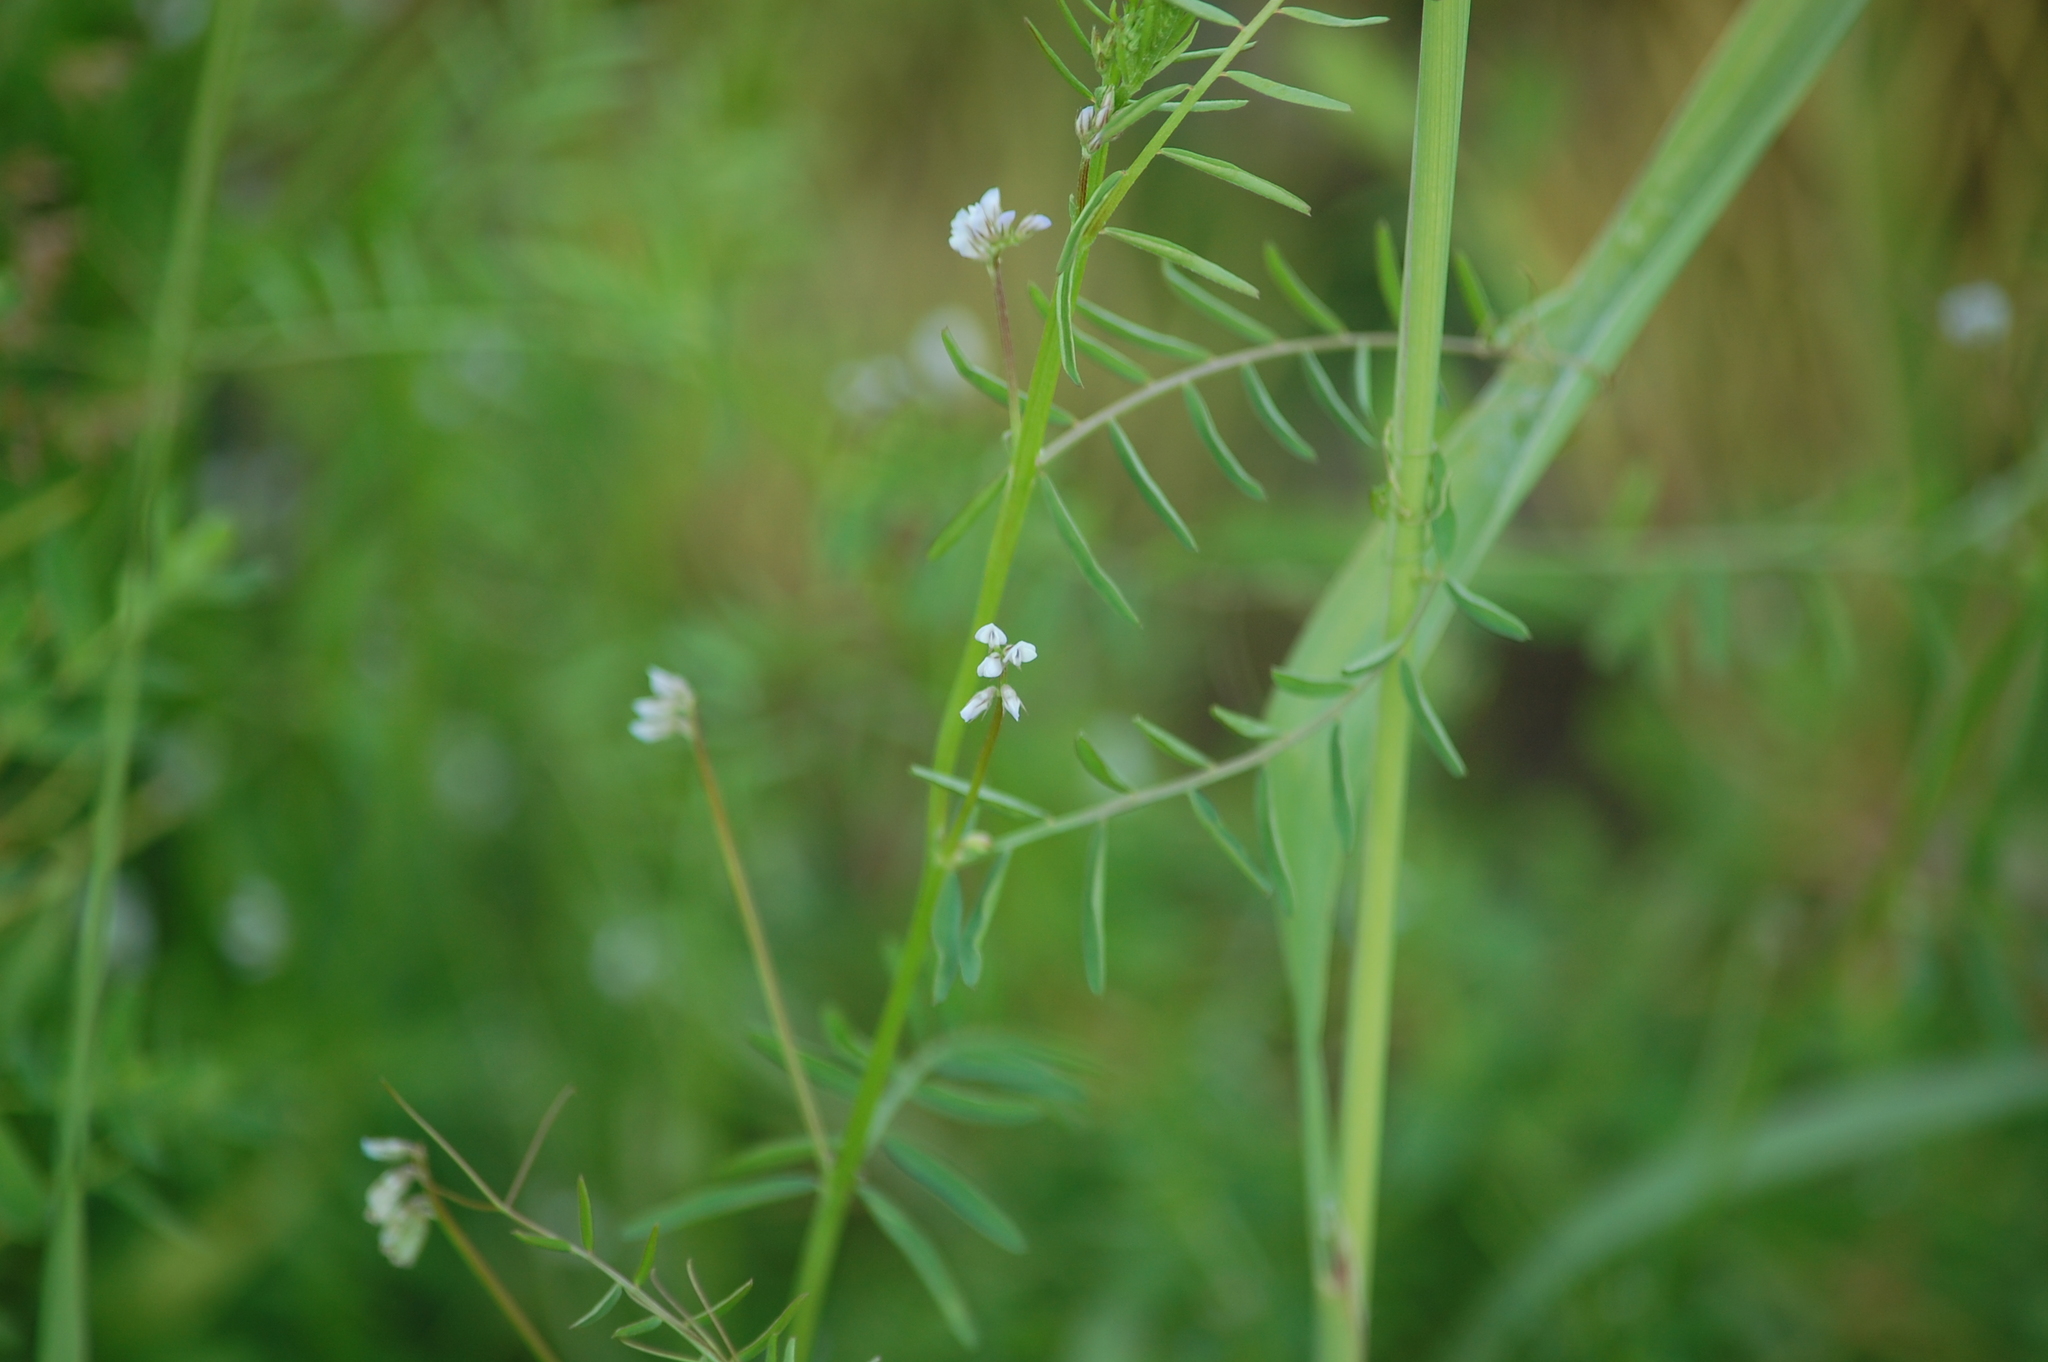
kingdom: Plantae
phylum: Tracheophyta
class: Magnoliopsida
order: Fabales
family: Fabaceae
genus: Vicia
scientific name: Vicia hirsuta
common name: Tiny vetch
